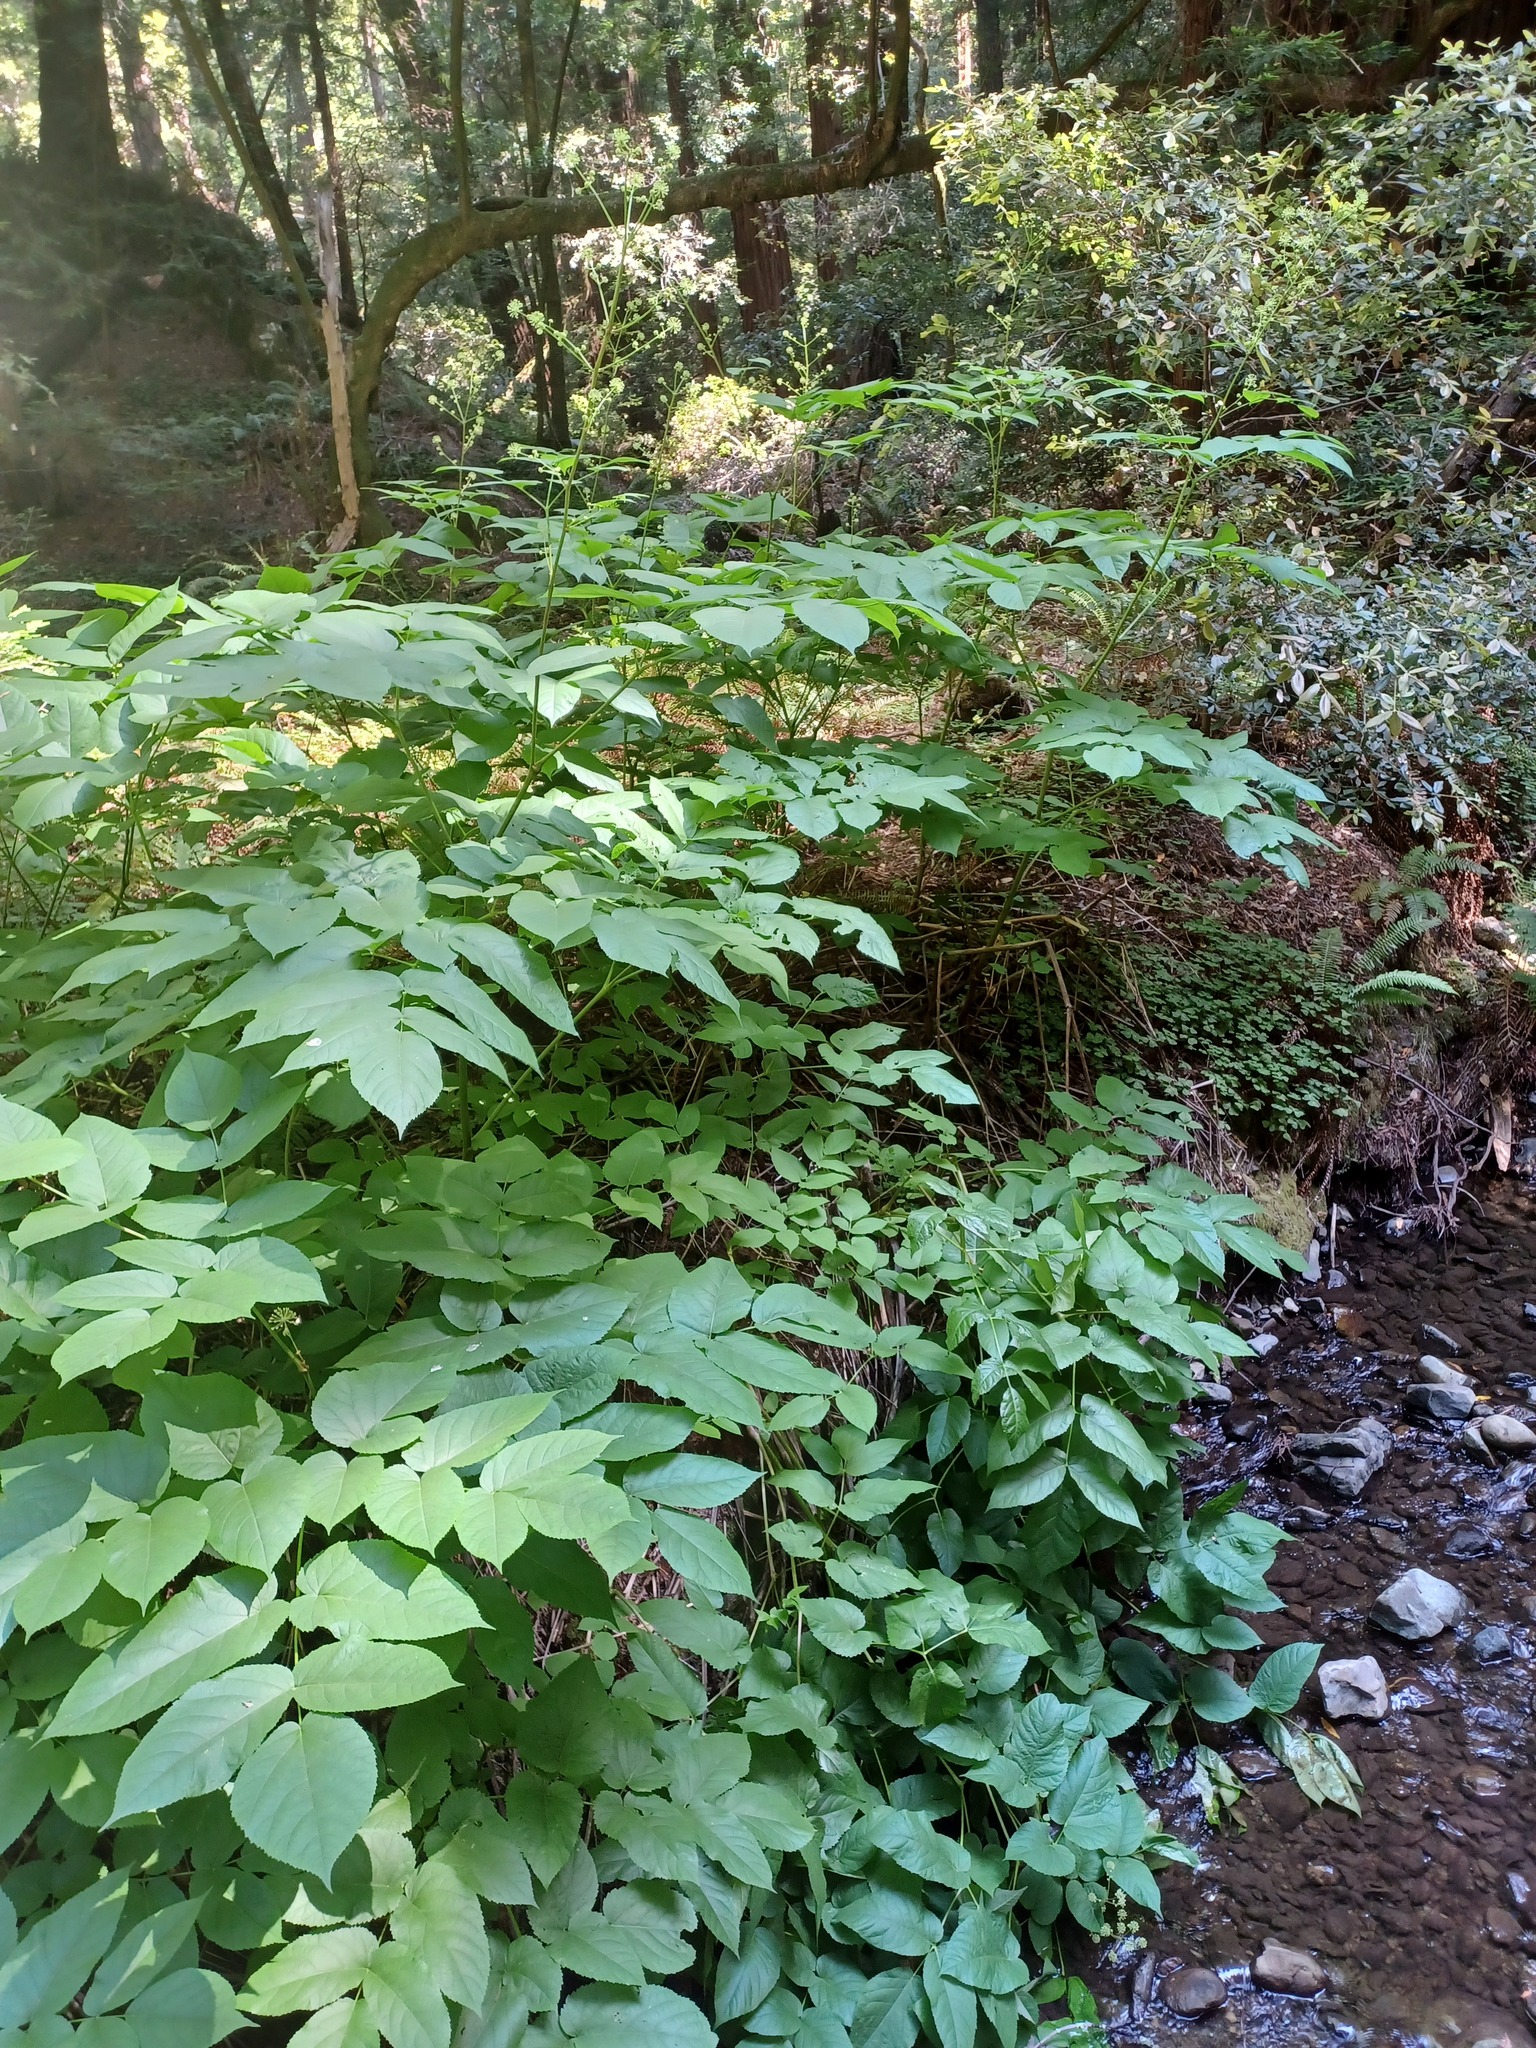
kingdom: Plantae
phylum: Tracheophyta
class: Magnoliopsida
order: Apiales
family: Araliaceae
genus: Aralia
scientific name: Aralia californica
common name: California-ginseng
